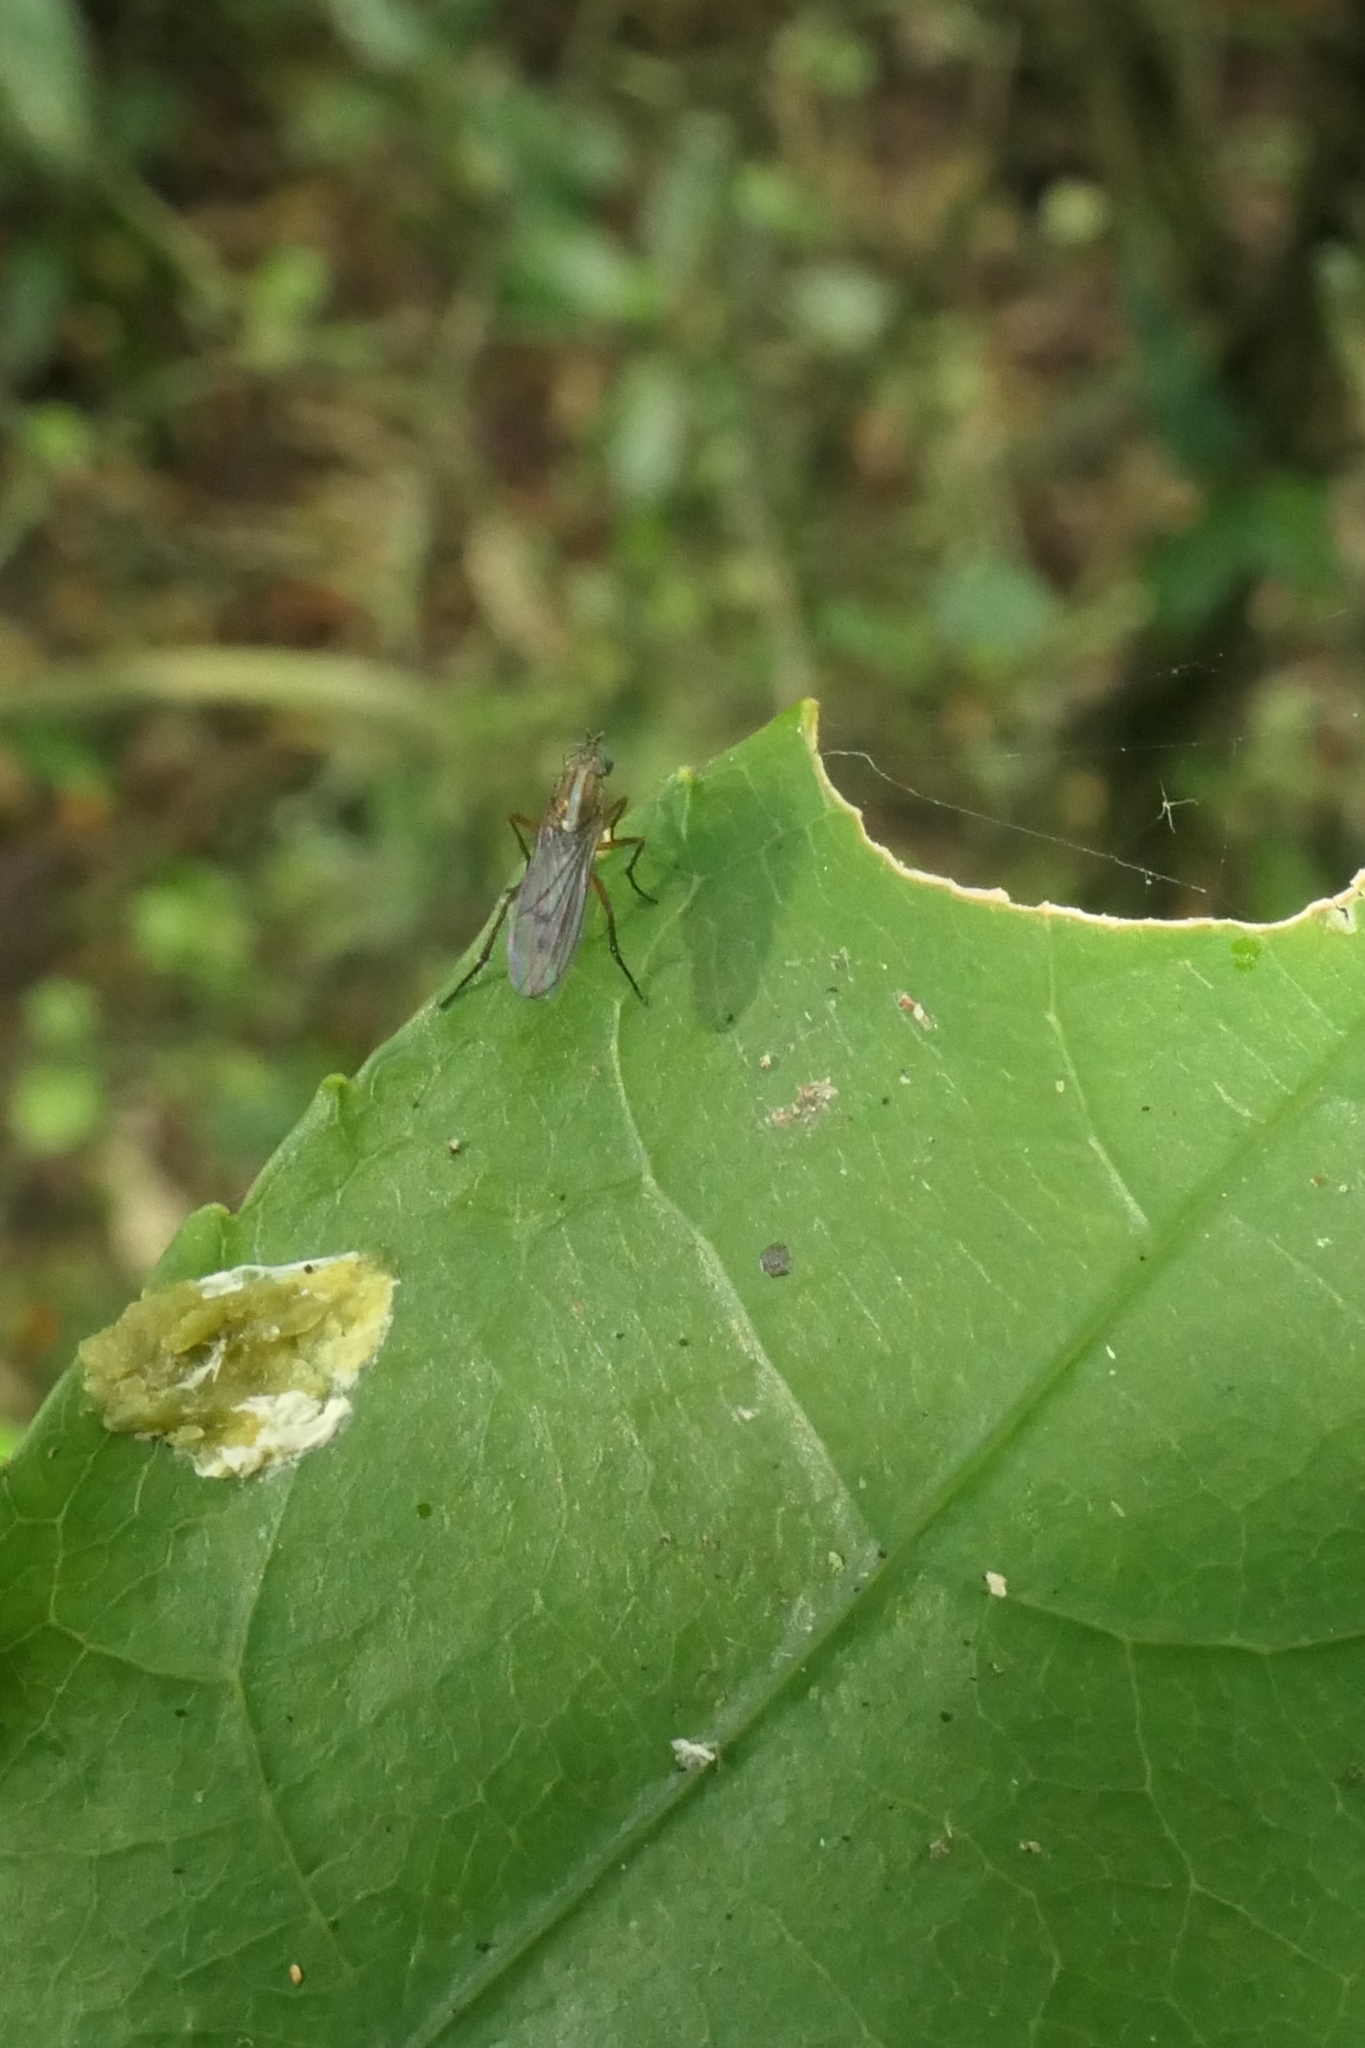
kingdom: Animalia
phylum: Arthropoda
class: Insecta
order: Diptera
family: Dolichopodidae
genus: Tetrachaetus
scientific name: Tetrachaetus bipunctatus
